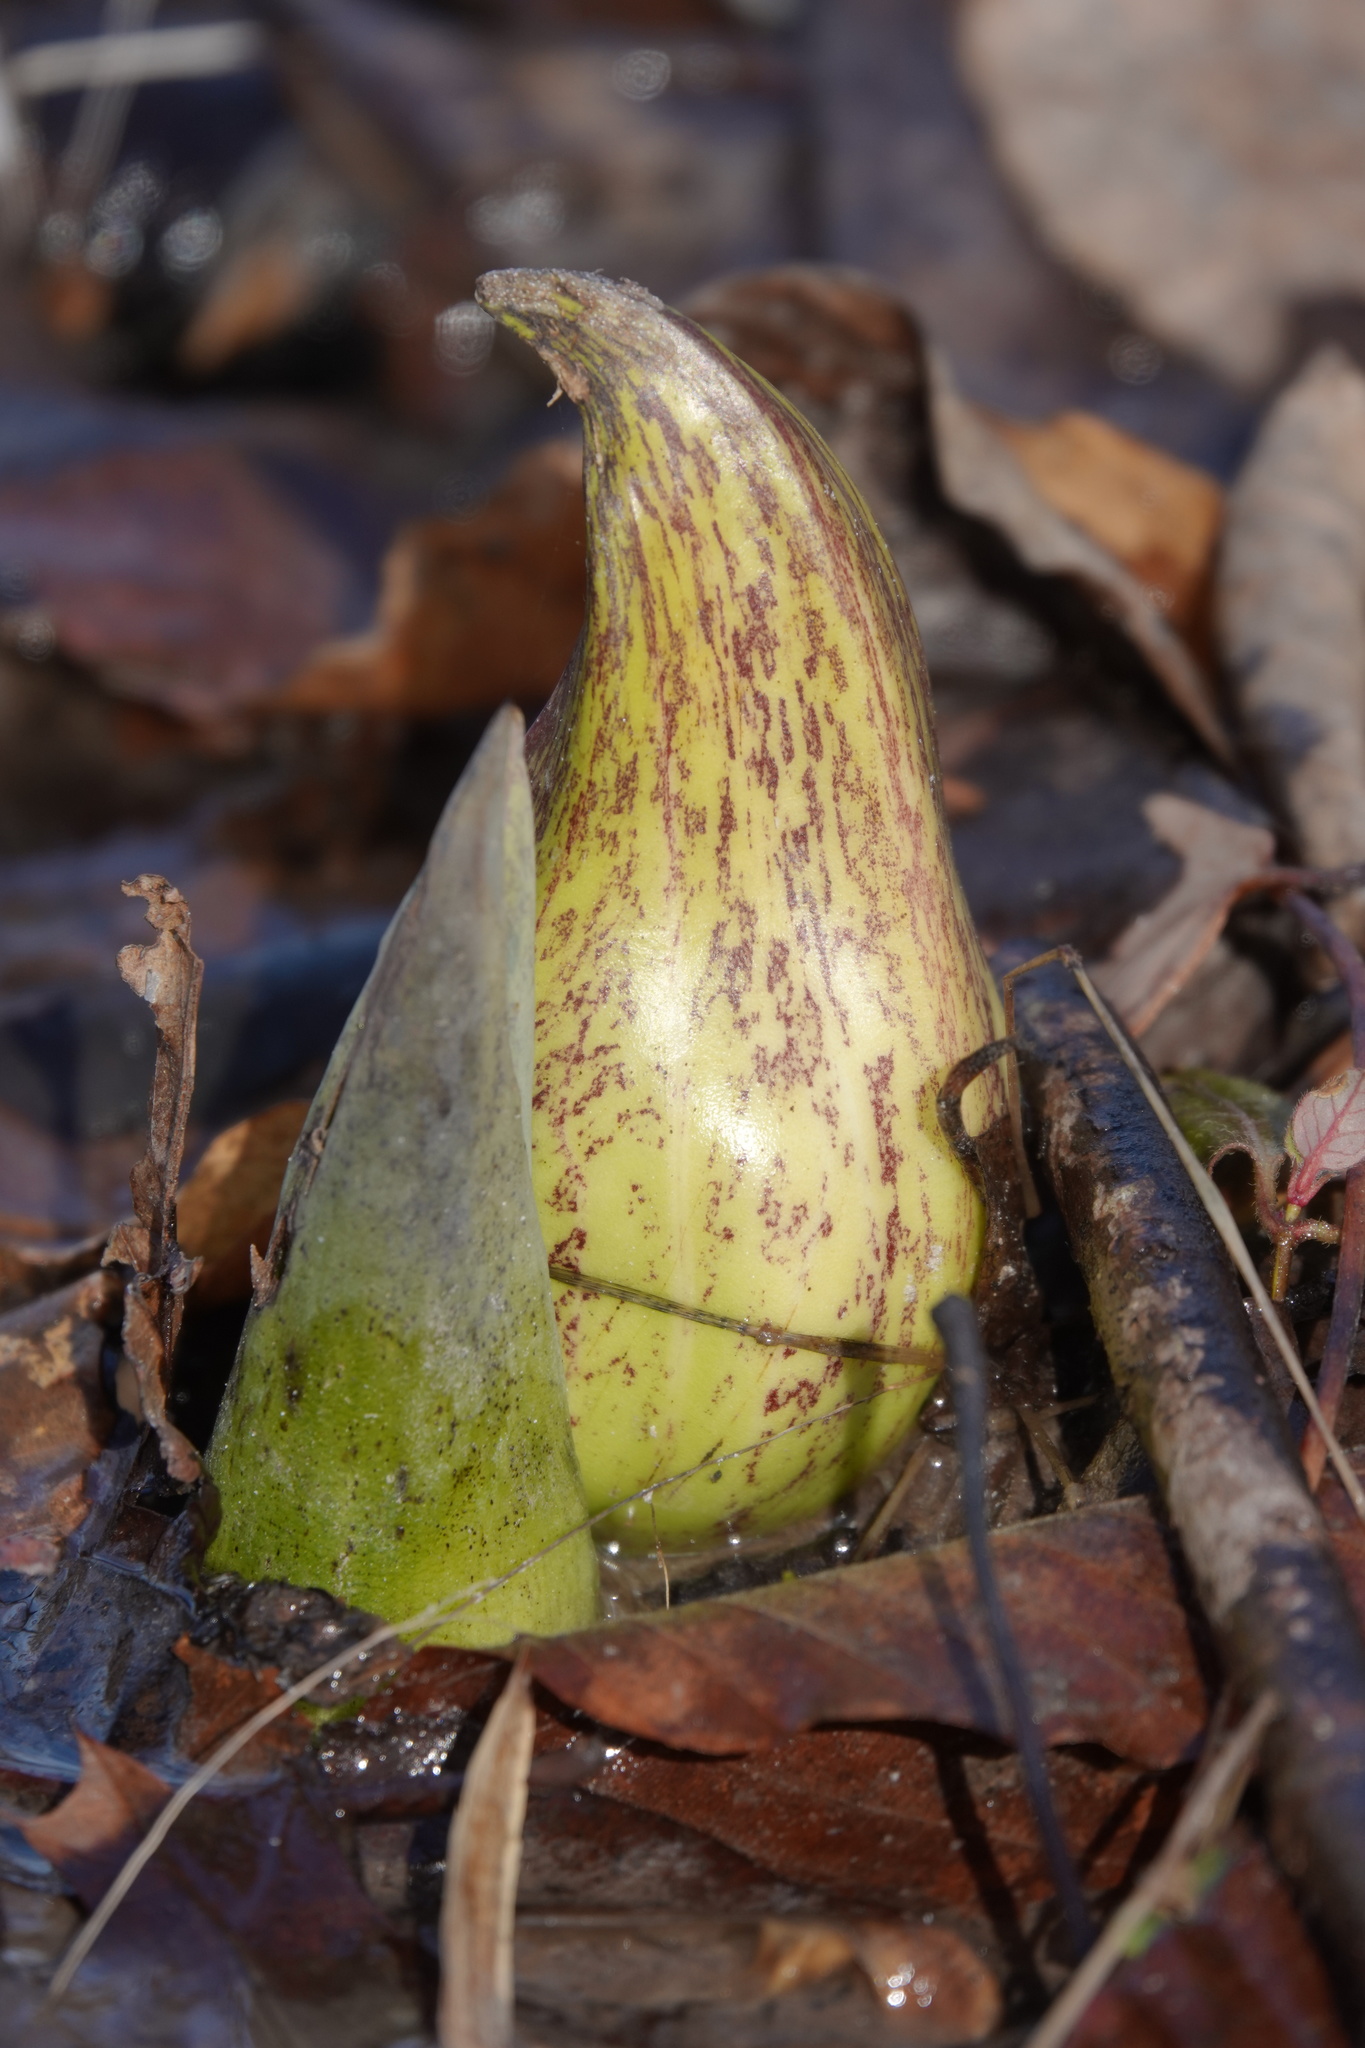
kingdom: Plantae
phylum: Tracheophyta
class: Liliopsida
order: Alismatales
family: Araceae
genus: Symplocarpus
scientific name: Symplocarpus foetidus
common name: Eastern skunk cabbage
